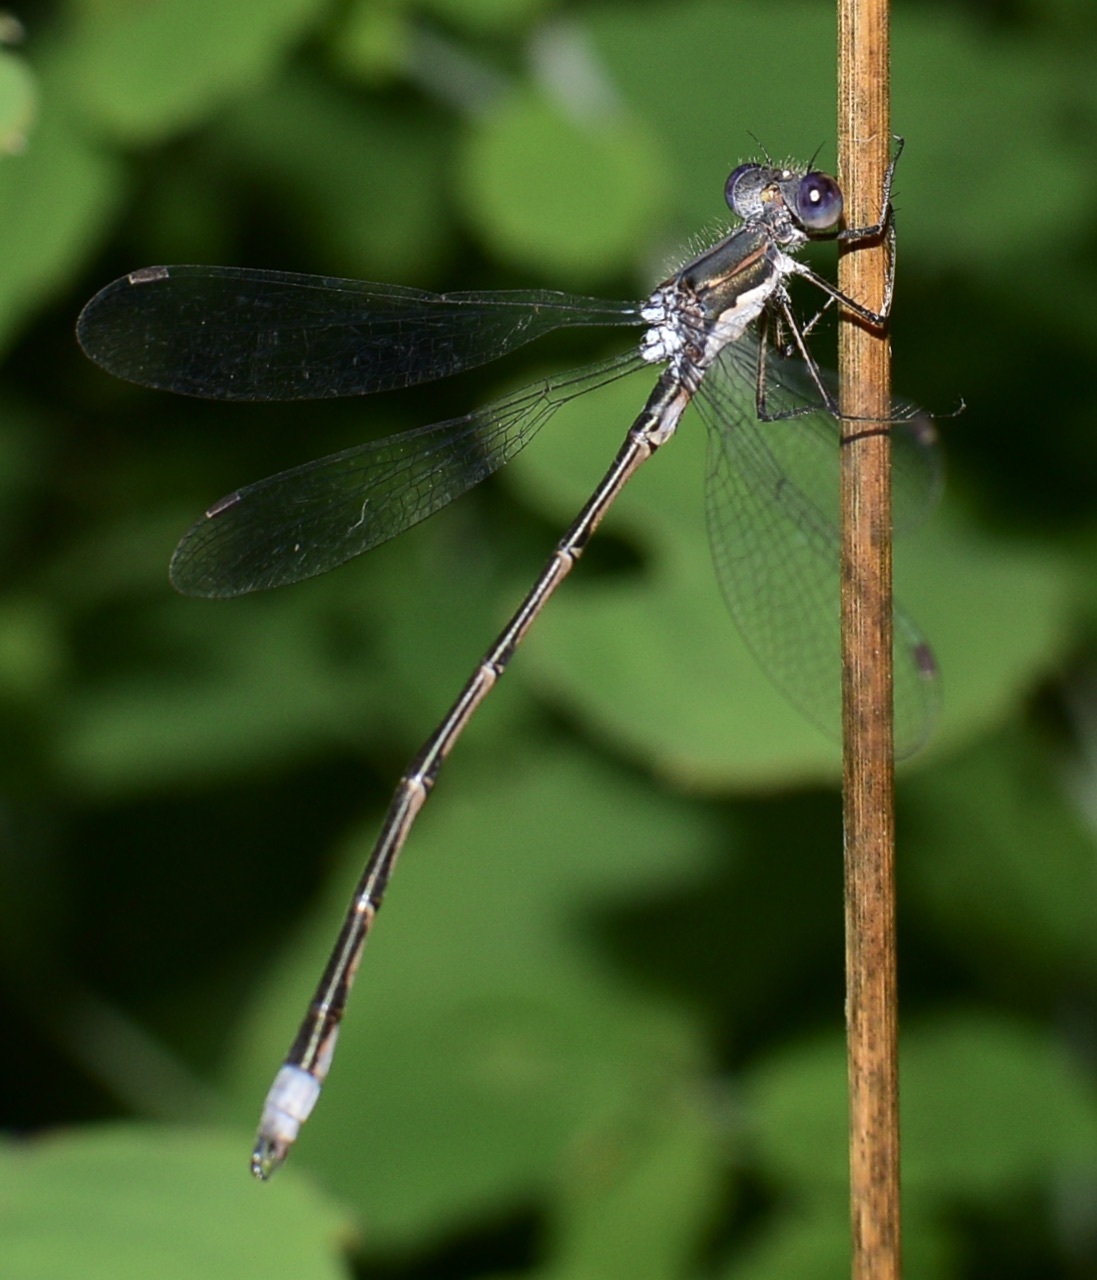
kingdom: Animalia
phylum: Arthropoda
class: Insecta
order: Odonata
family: Lestidae
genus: Lestes
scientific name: Lestes congener
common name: Spotted spreadwing
